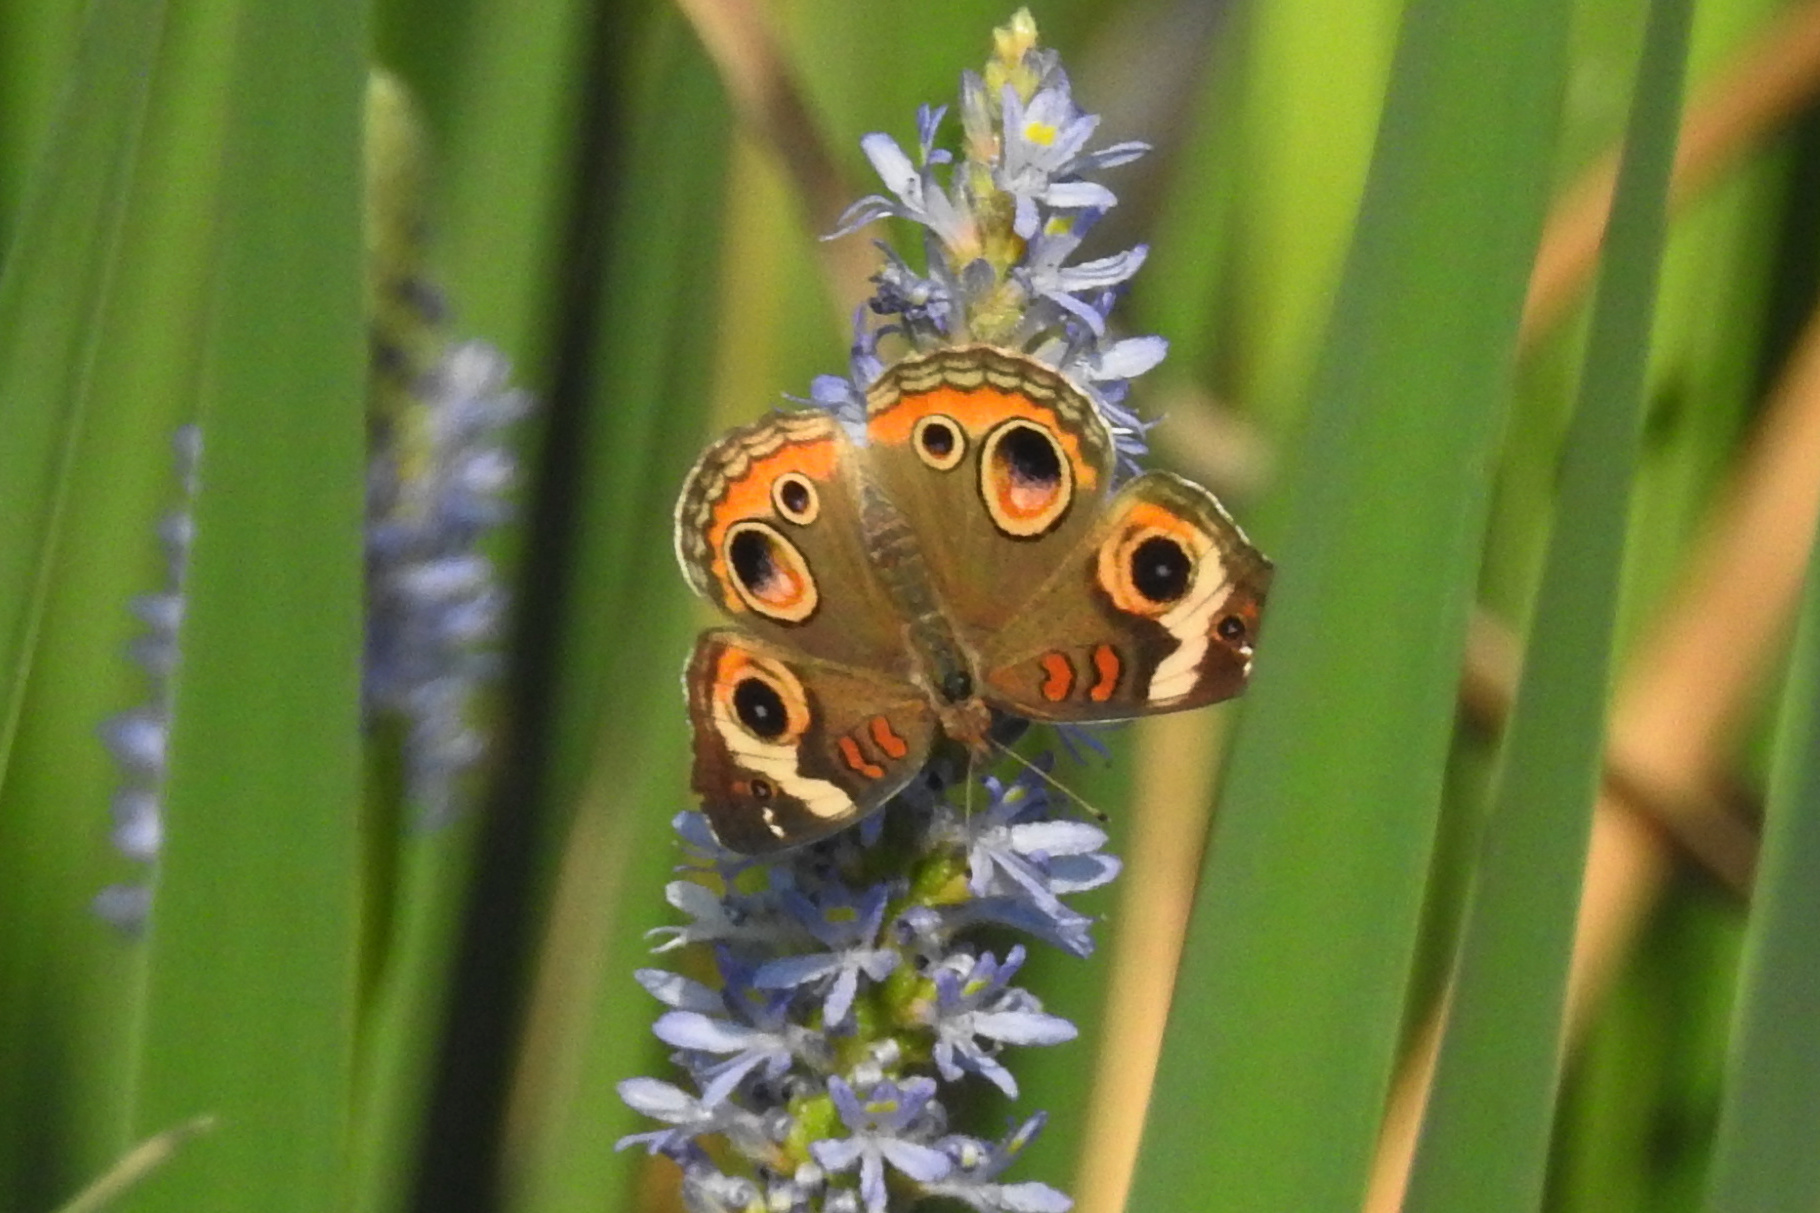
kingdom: Animalia
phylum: Arthropoda
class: Insecta
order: Lepidoptera
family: Nymphalidae
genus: Junonia
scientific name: Junonia coenia
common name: Common buckeye
